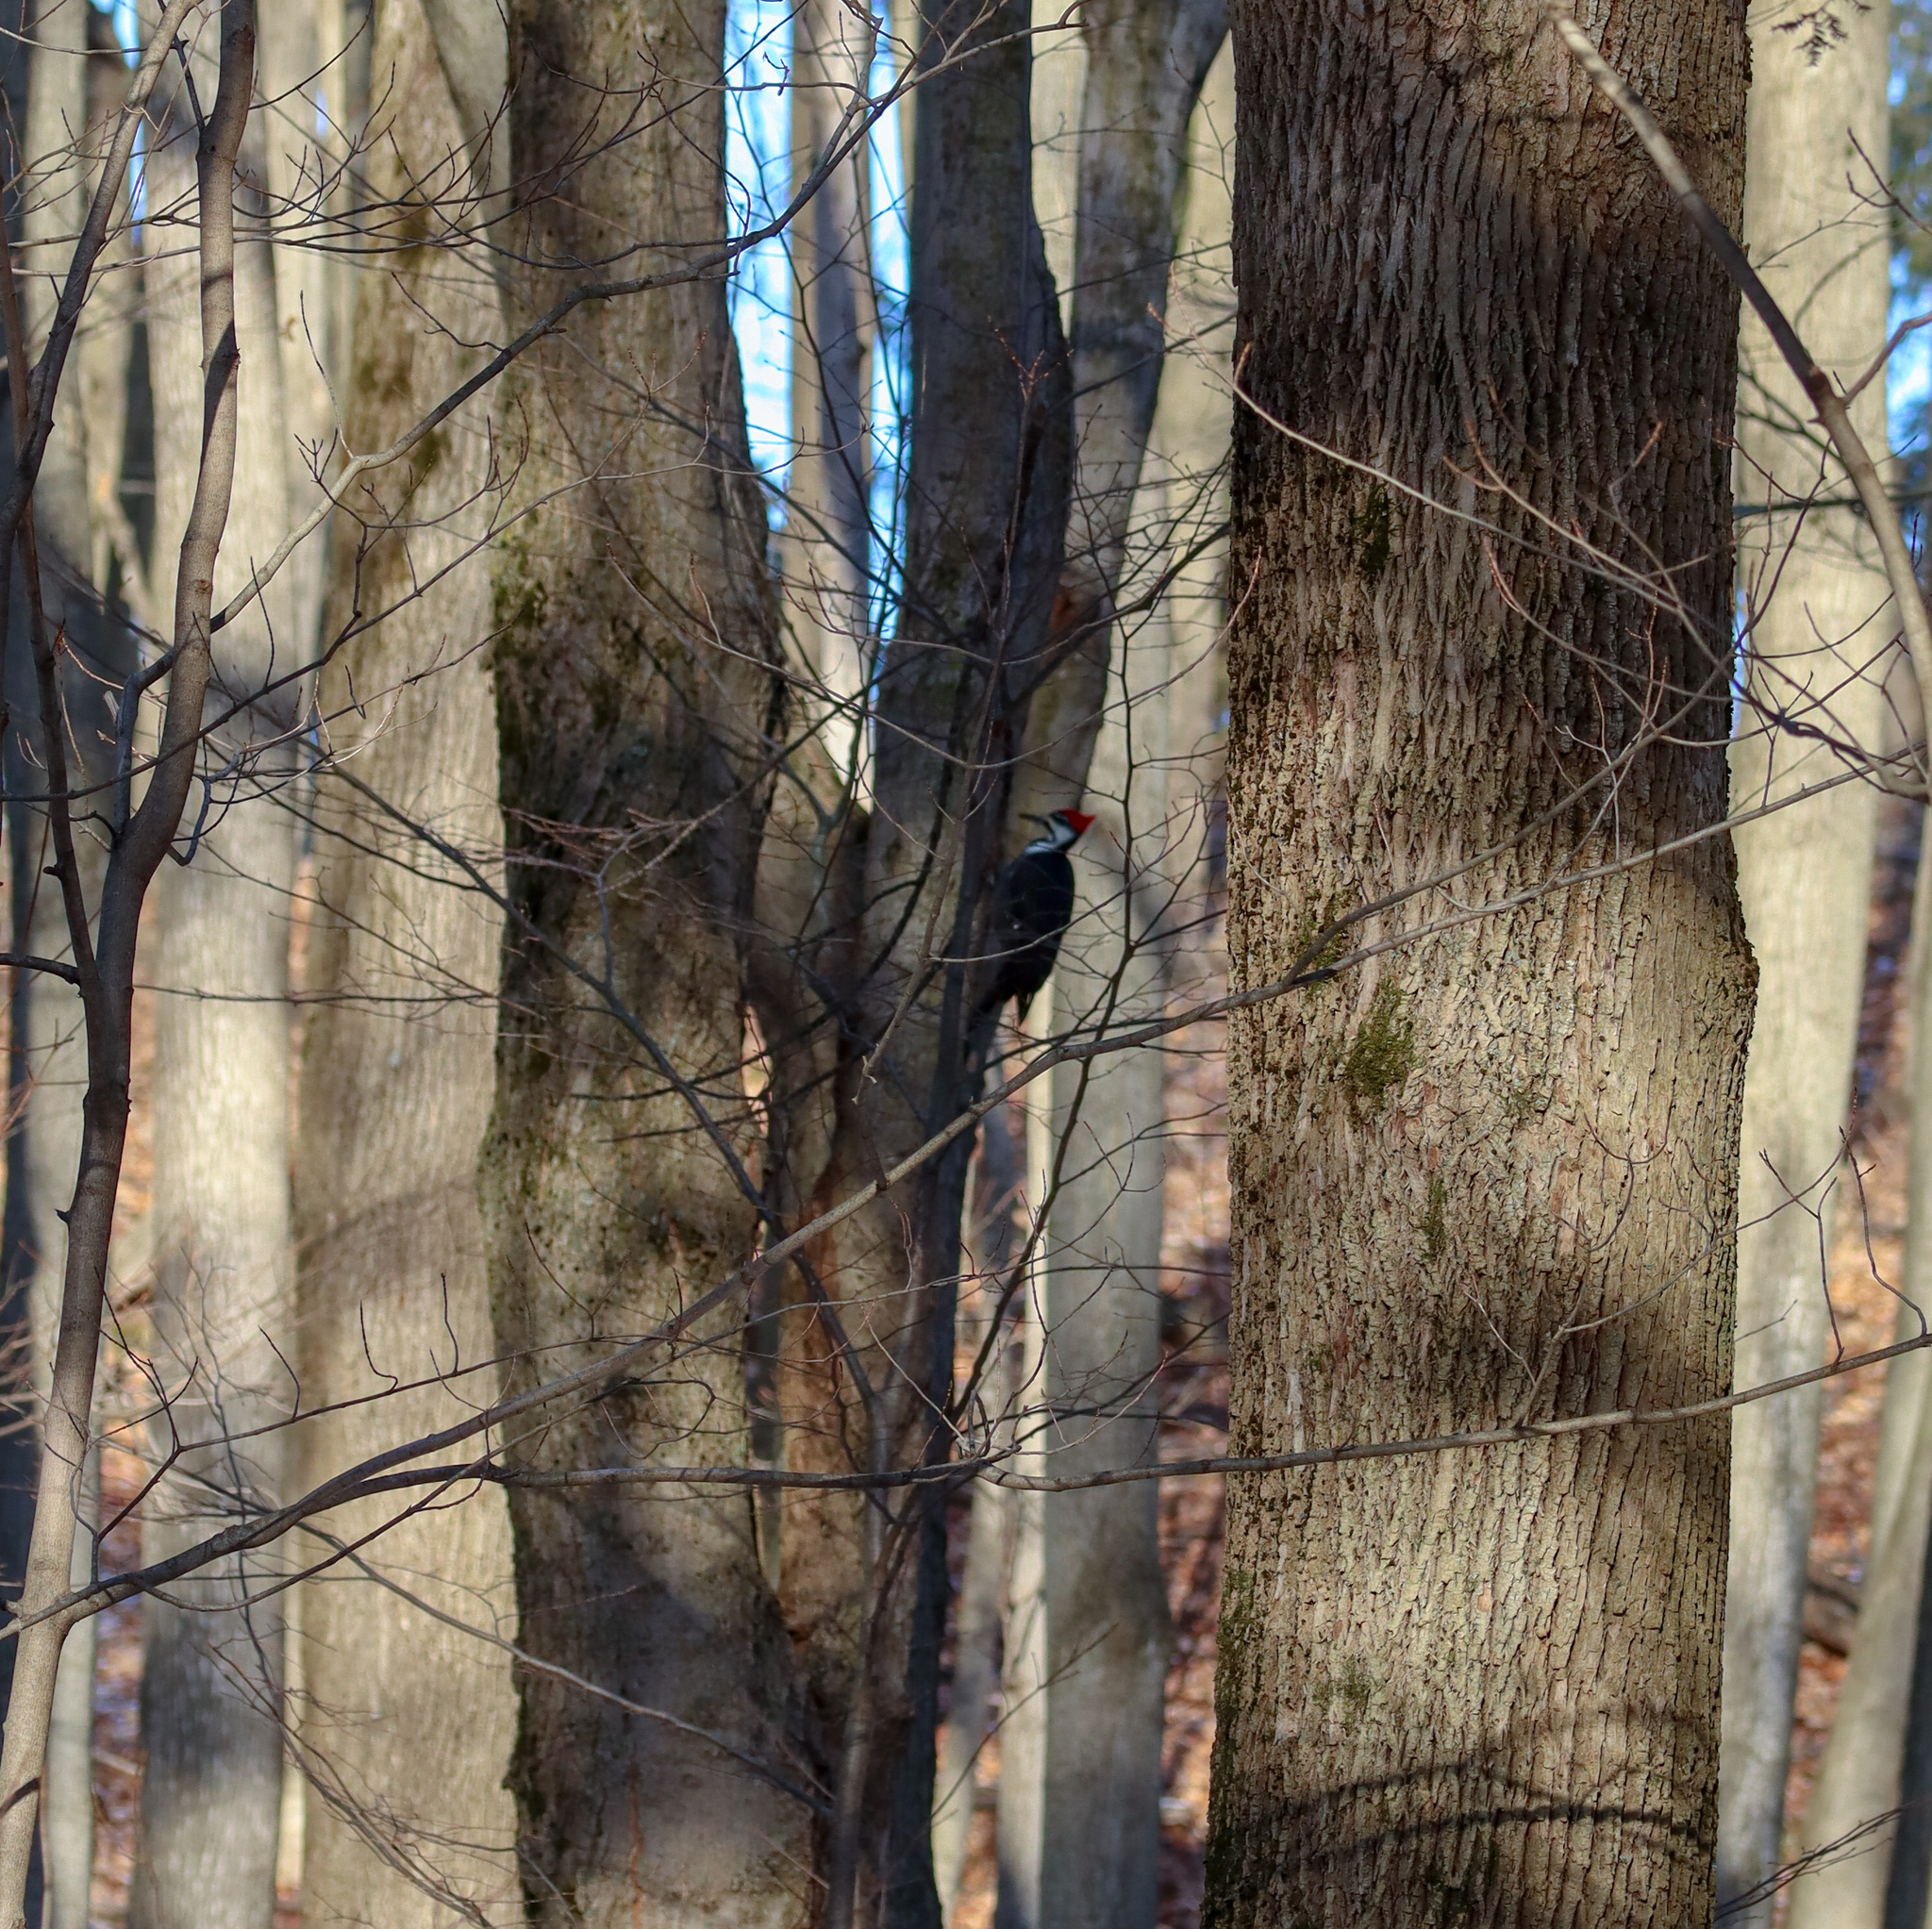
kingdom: Animalia
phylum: Chordata
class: Aves
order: Piciformes
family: Picidae
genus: Dryocopus
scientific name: Dryocopus pileatus
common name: Pileated woodpecker
